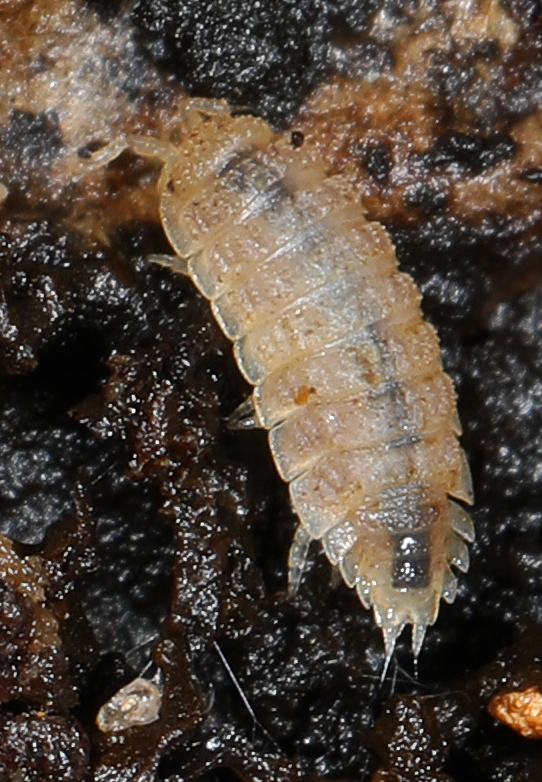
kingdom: Animalia
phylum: Arthropoda
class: Malacostraca
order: Isopoda
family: Trichoniscidae
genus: Haplophthalmus
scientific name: Haplophthalmus danicus
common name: Pillbug
